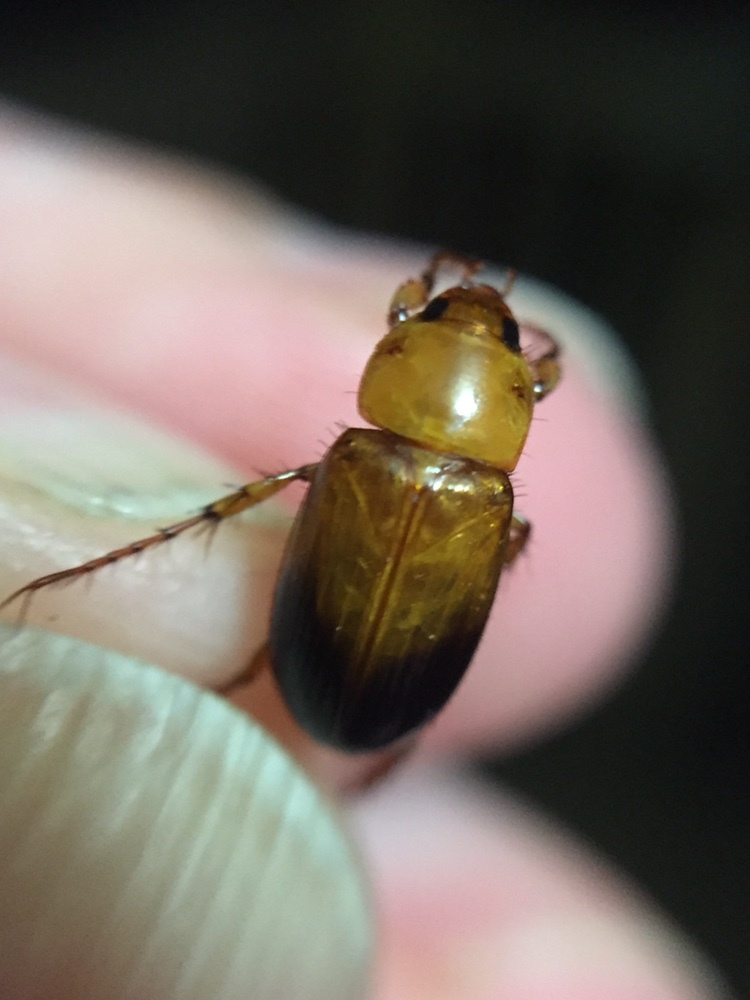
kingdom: Animalia
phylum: Arthropoda
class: Insecta
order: Coleoptera
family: Scarabaeidae
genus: Phyllotocus
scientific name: Phyllotocus macleayi
